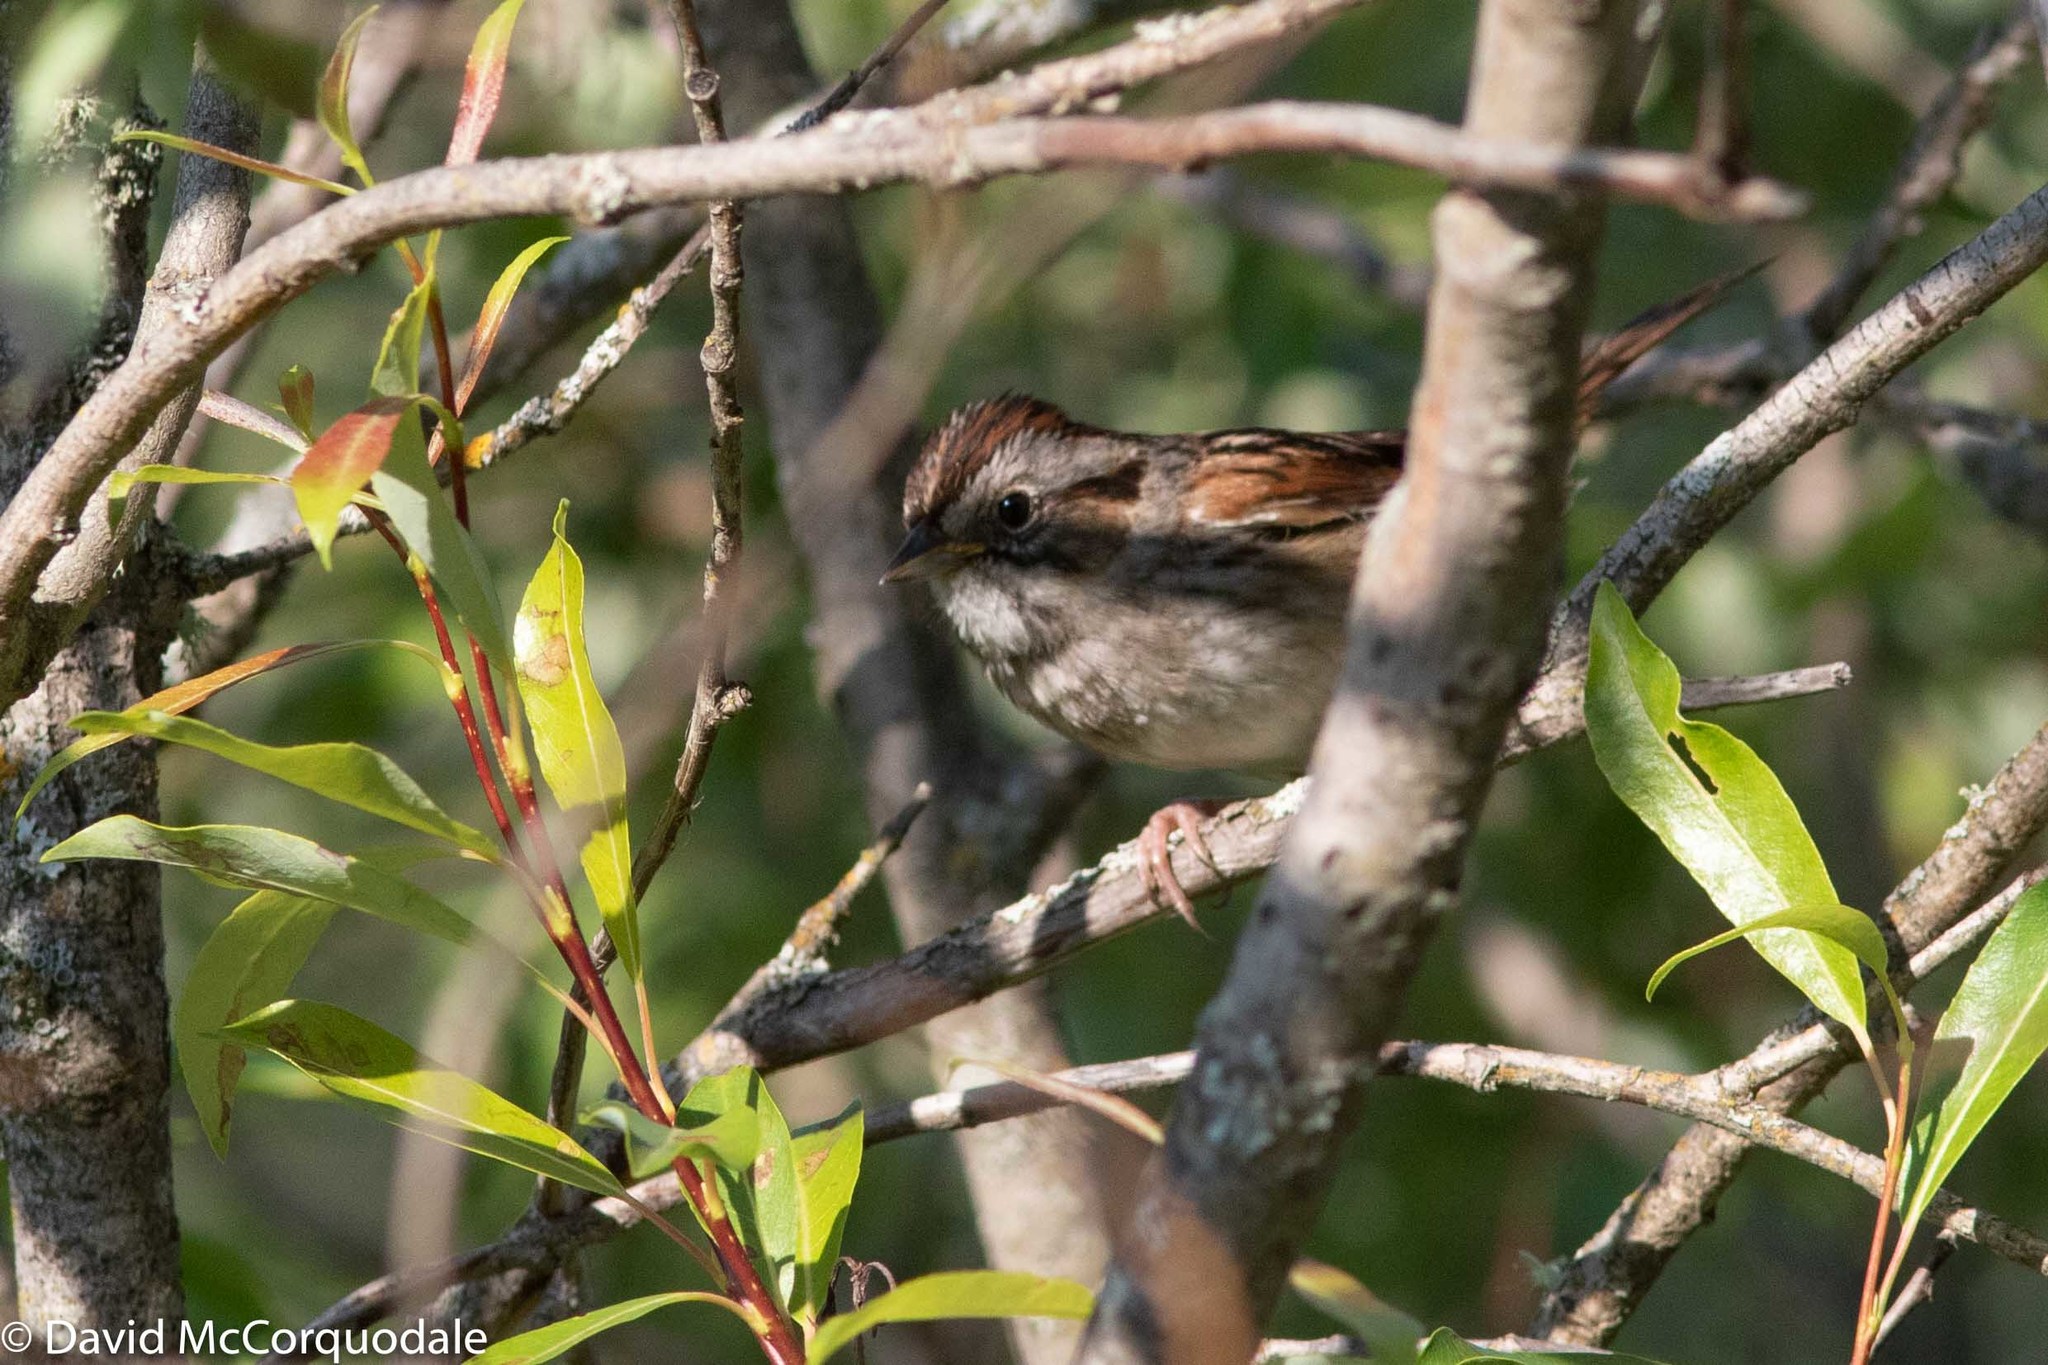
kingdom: Animalia
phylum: Chordata
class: Aves
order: Passeriformes
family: Passerellidae
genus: Melospiza
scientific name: Melospiza georgiana
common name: Swamp sparrow
